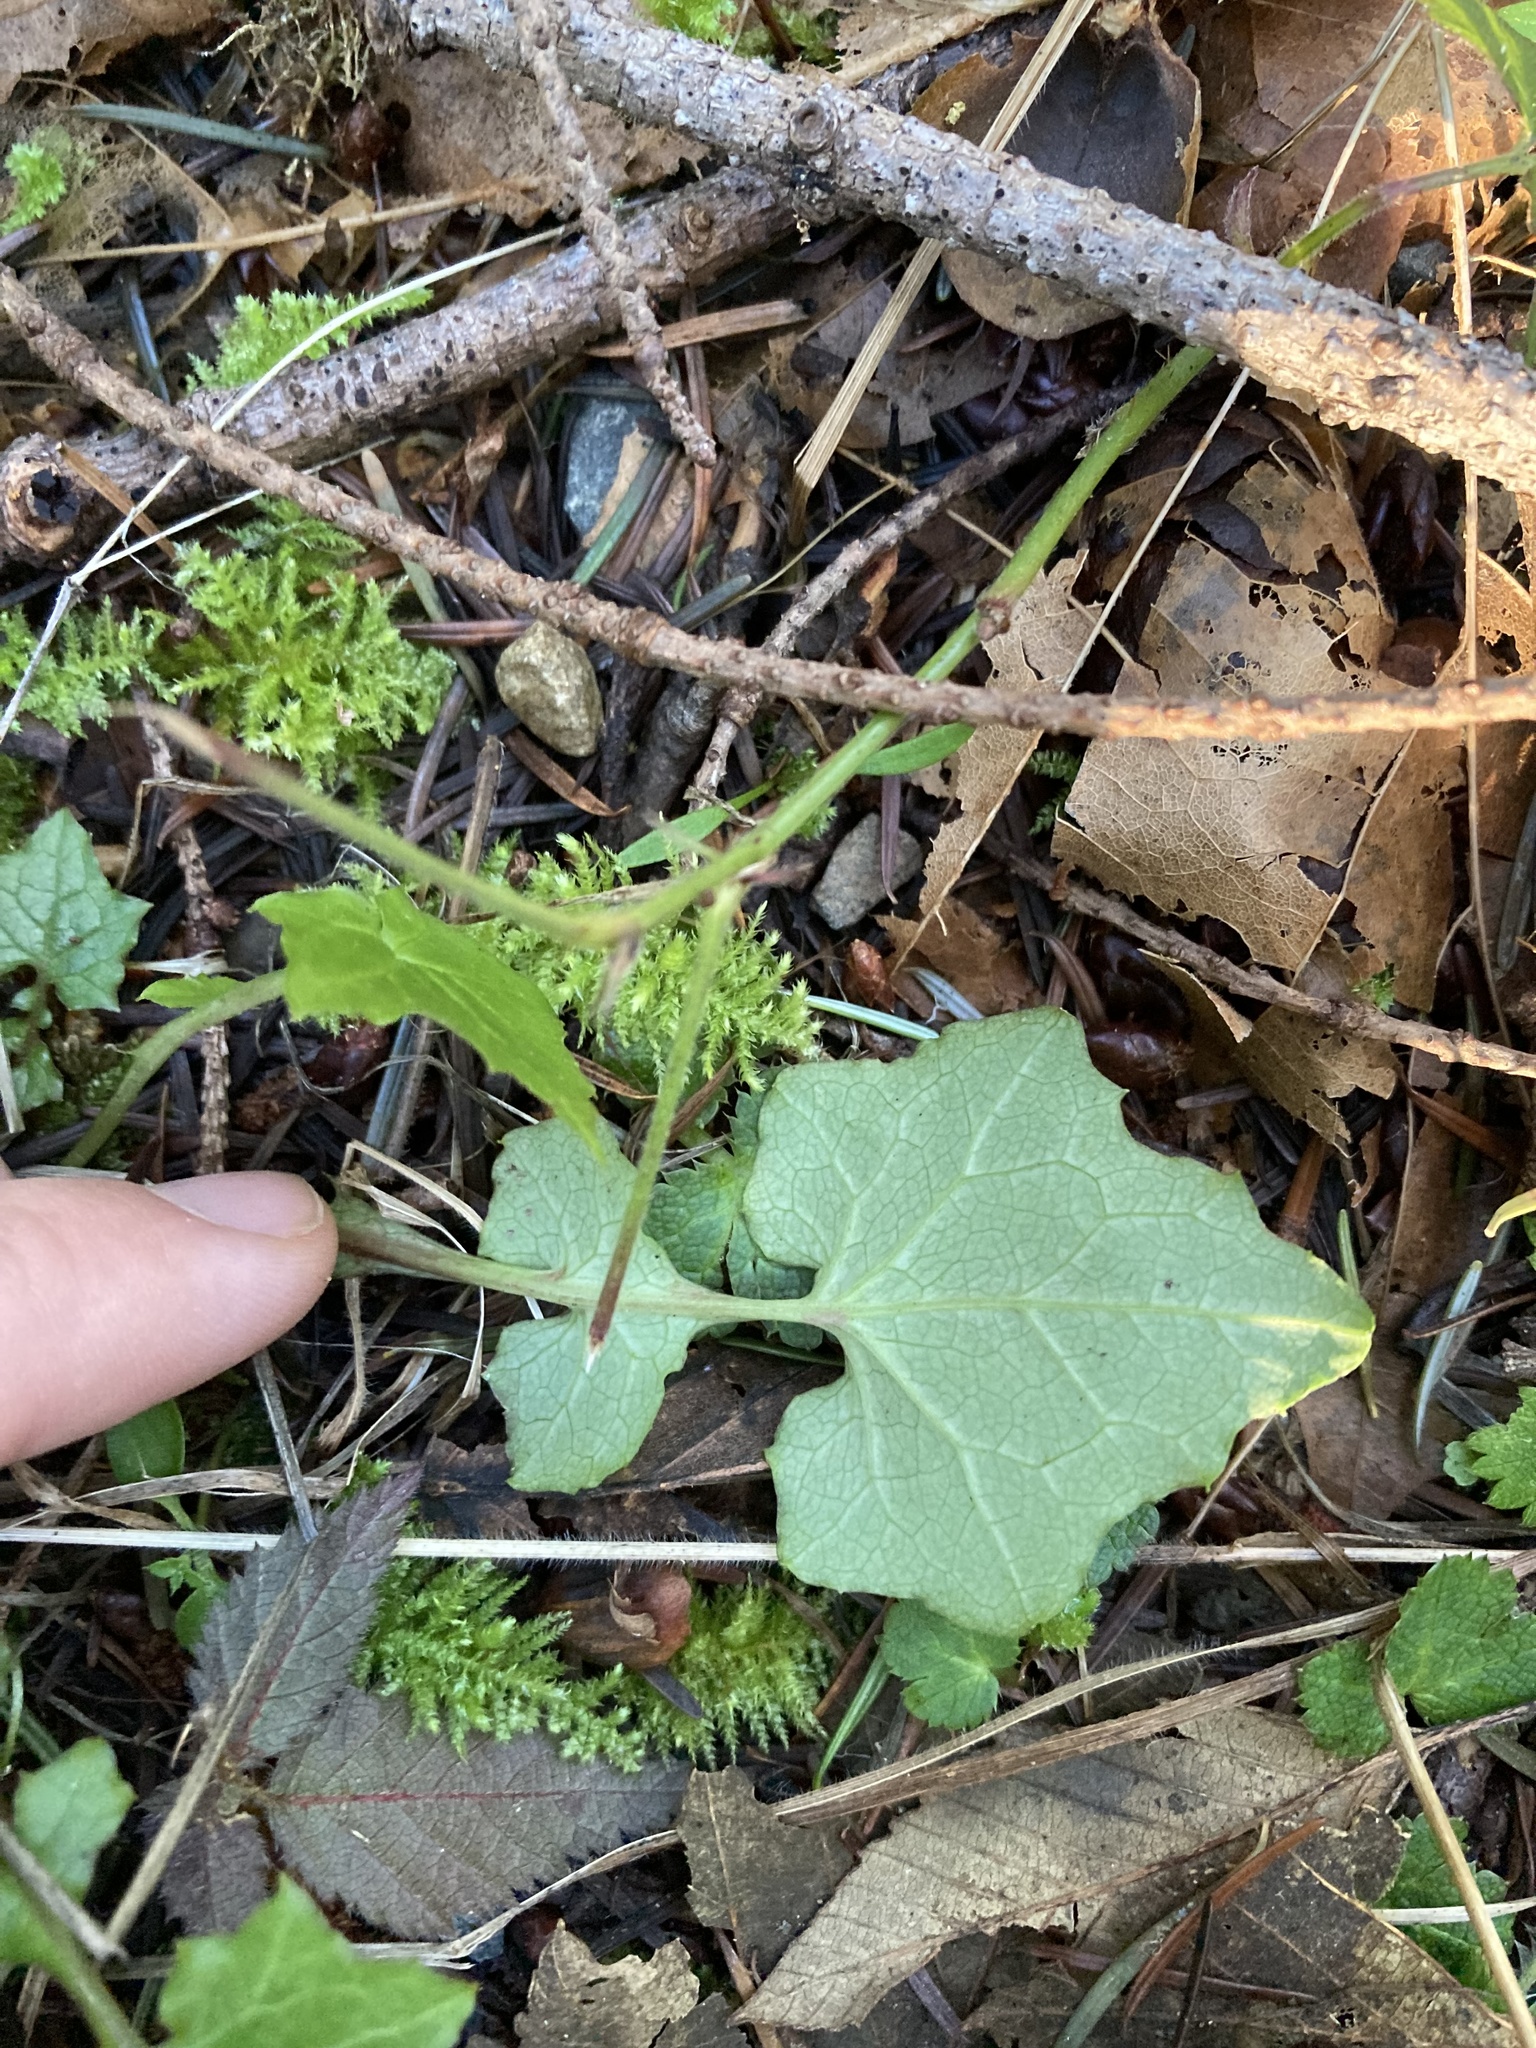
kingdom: Plantae
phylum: Tracheophyta
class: Magnoliopsida
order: Asterales
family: Asteraceae
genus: Mycelis
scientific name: Mycelis muralis
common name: Wall lettuce
